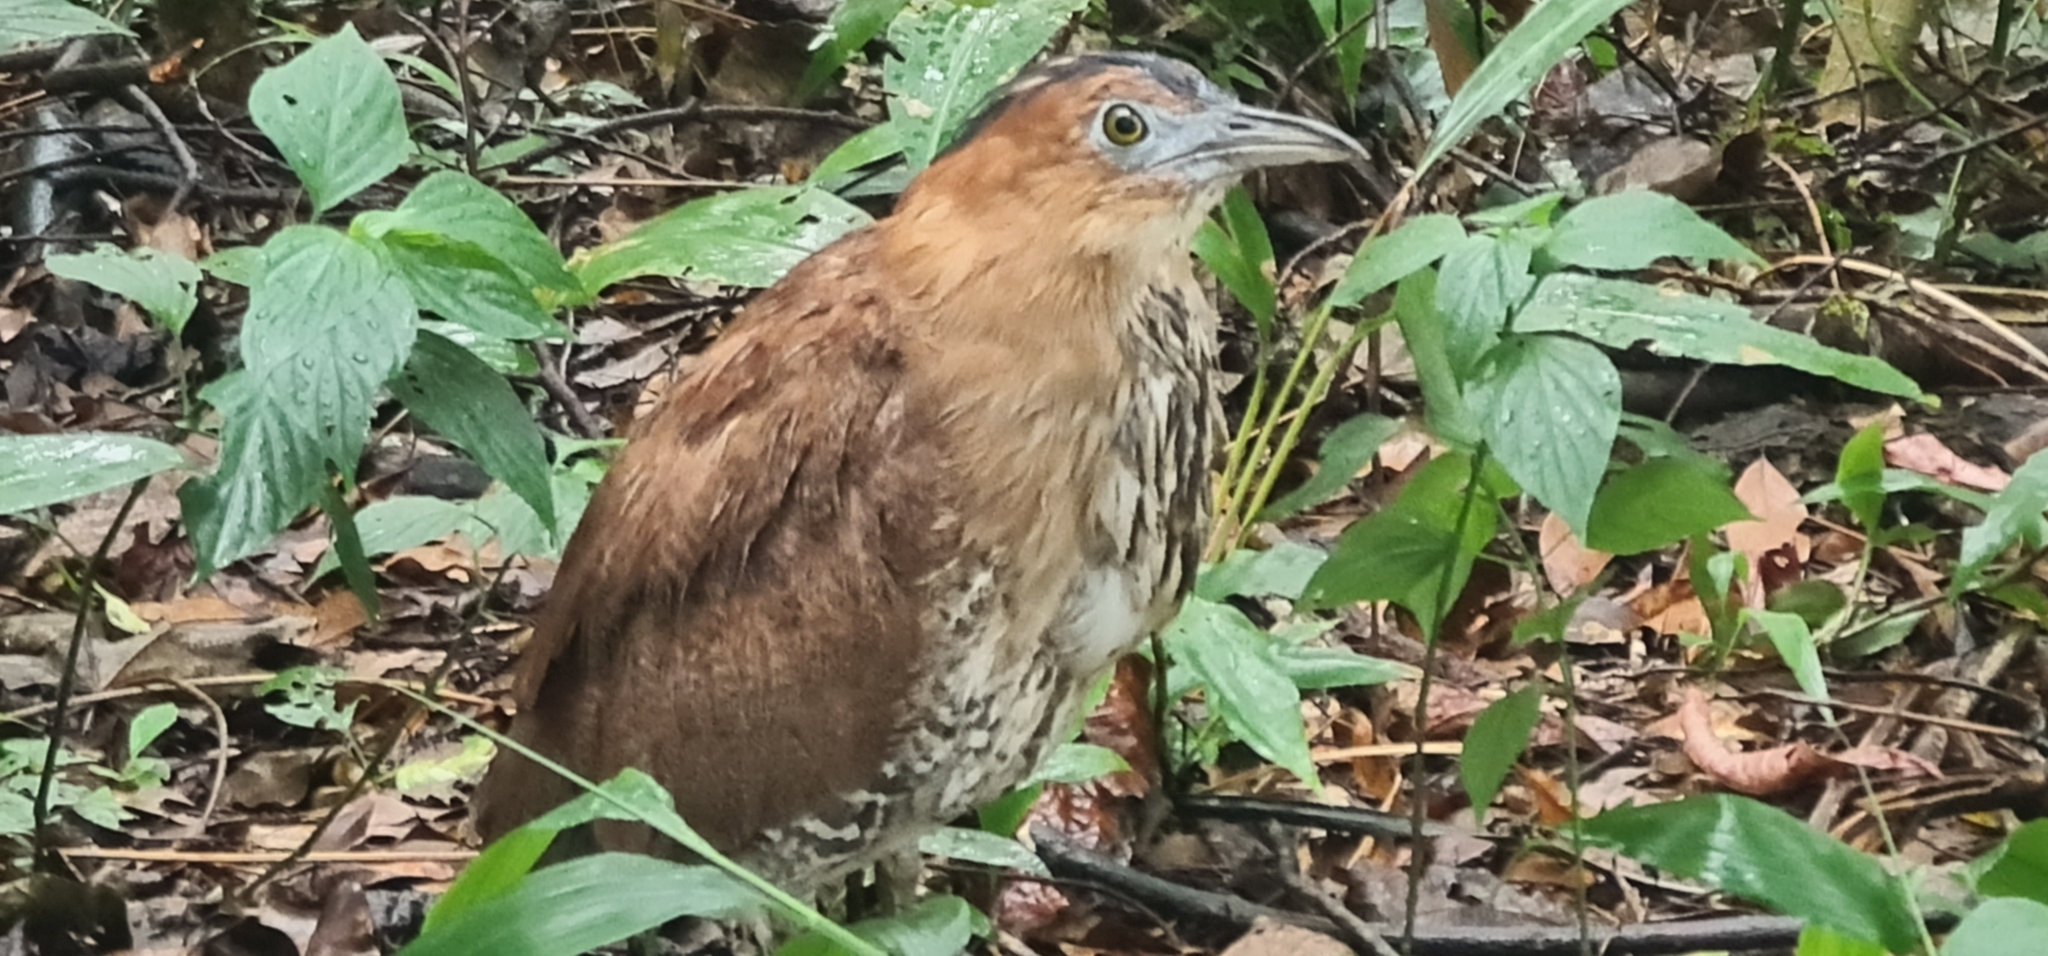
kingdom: Animalia
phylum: Chordata
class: Aves
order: Pelecaniformes
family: Ardeidae
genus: Gorsachius
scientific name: Gorsachius melanolophus
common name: Malayan night heron
